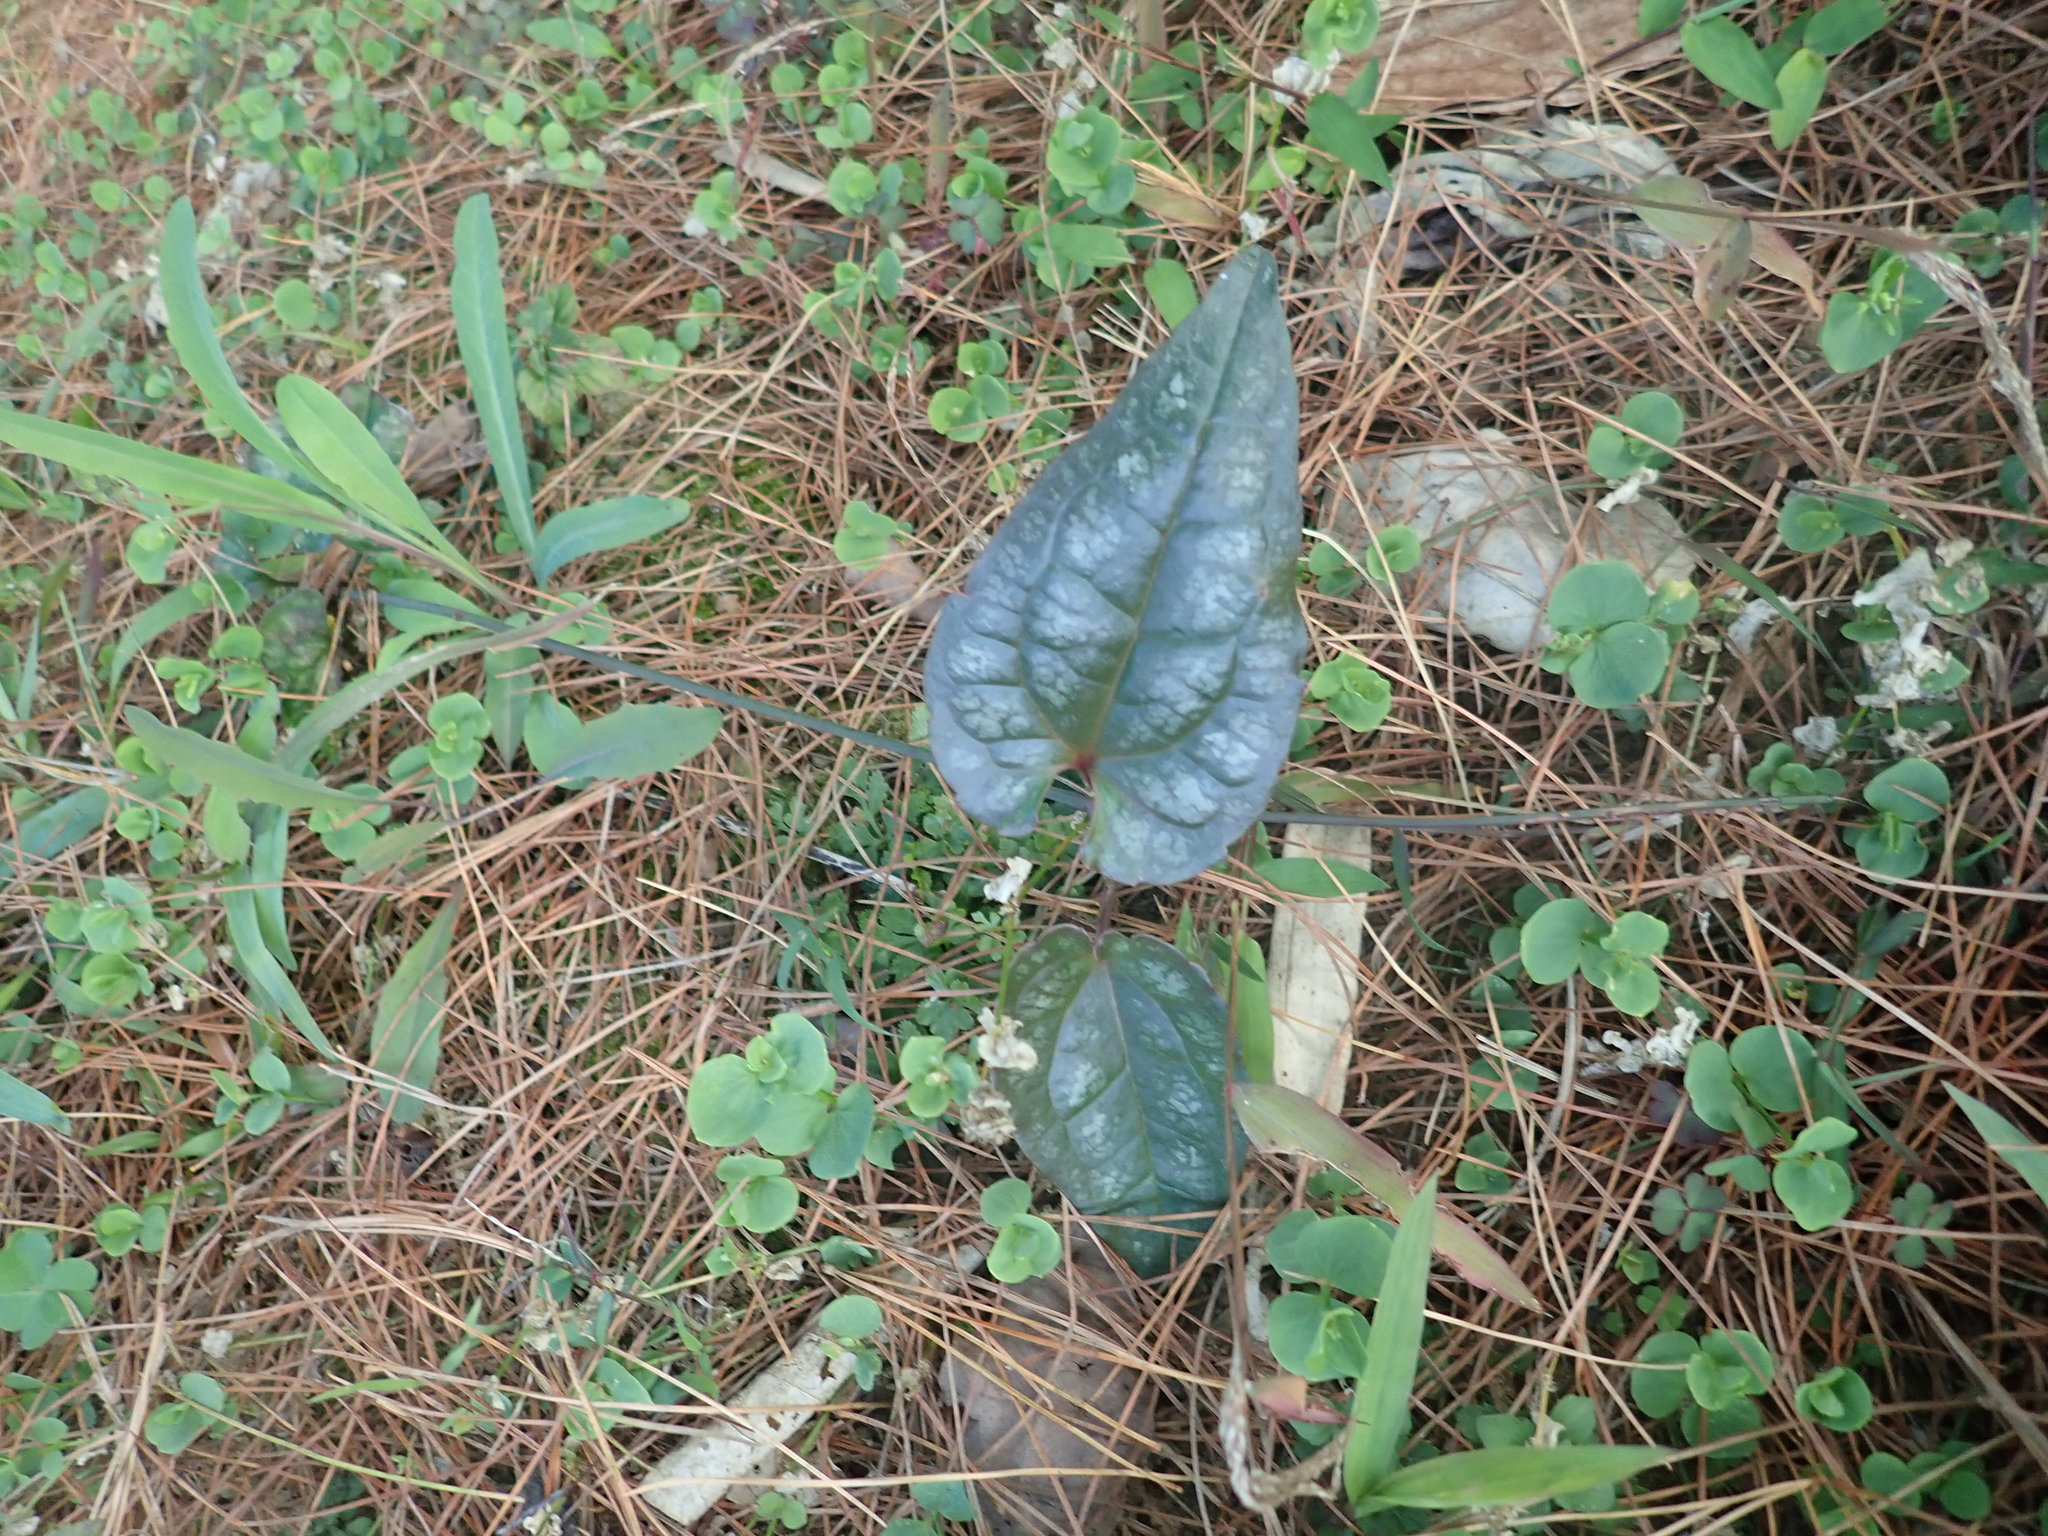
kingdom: Plantae
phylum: Tracheophyta
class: Magnoliopsida
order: Ranunculales
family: Ranunculaceae
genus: Clematis
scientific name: Clematis tashiroi
